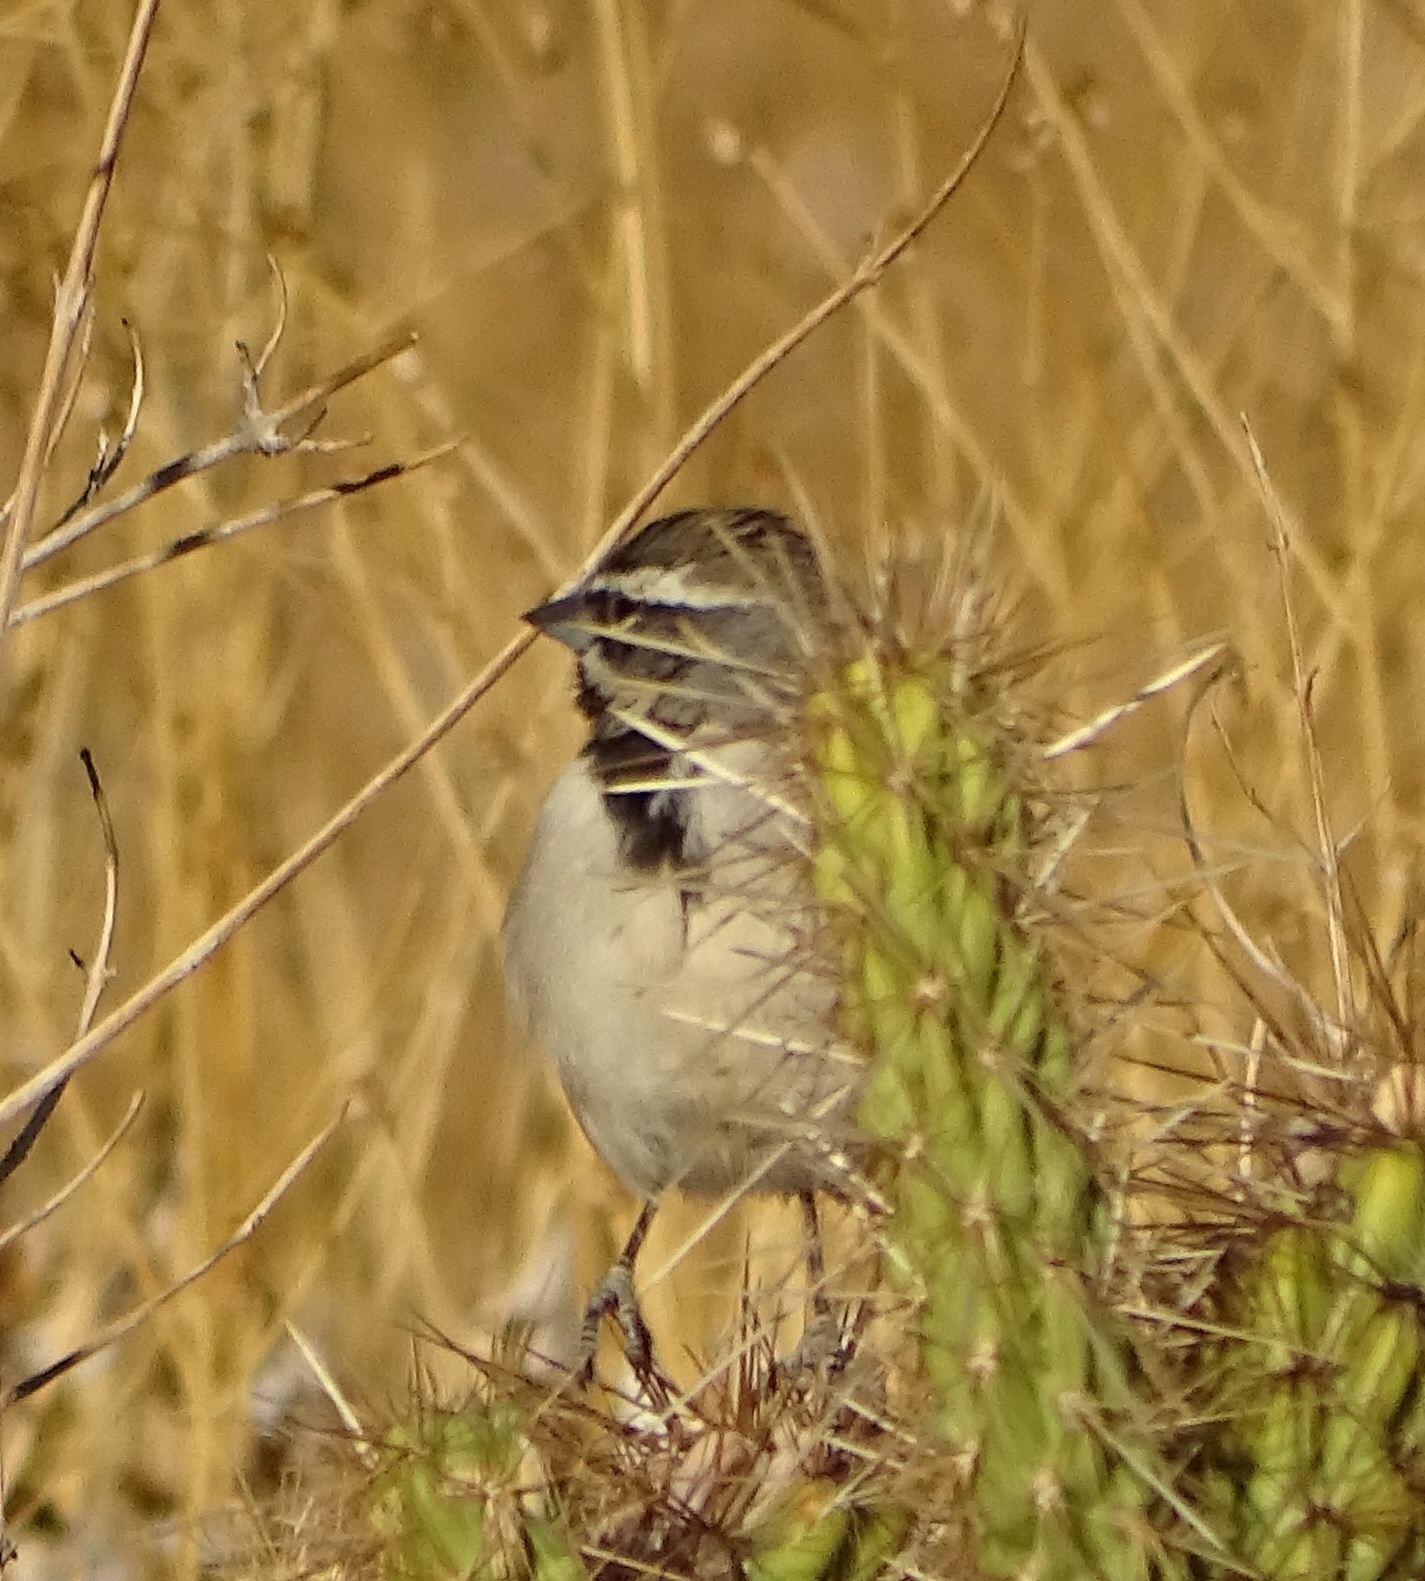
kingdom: Animalia
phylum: Chordata
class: Aves
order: Passeriformes
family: Passerellidae
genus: Amphispiza
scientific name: Amphispiza bilineata
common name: Black-throated sparrow
